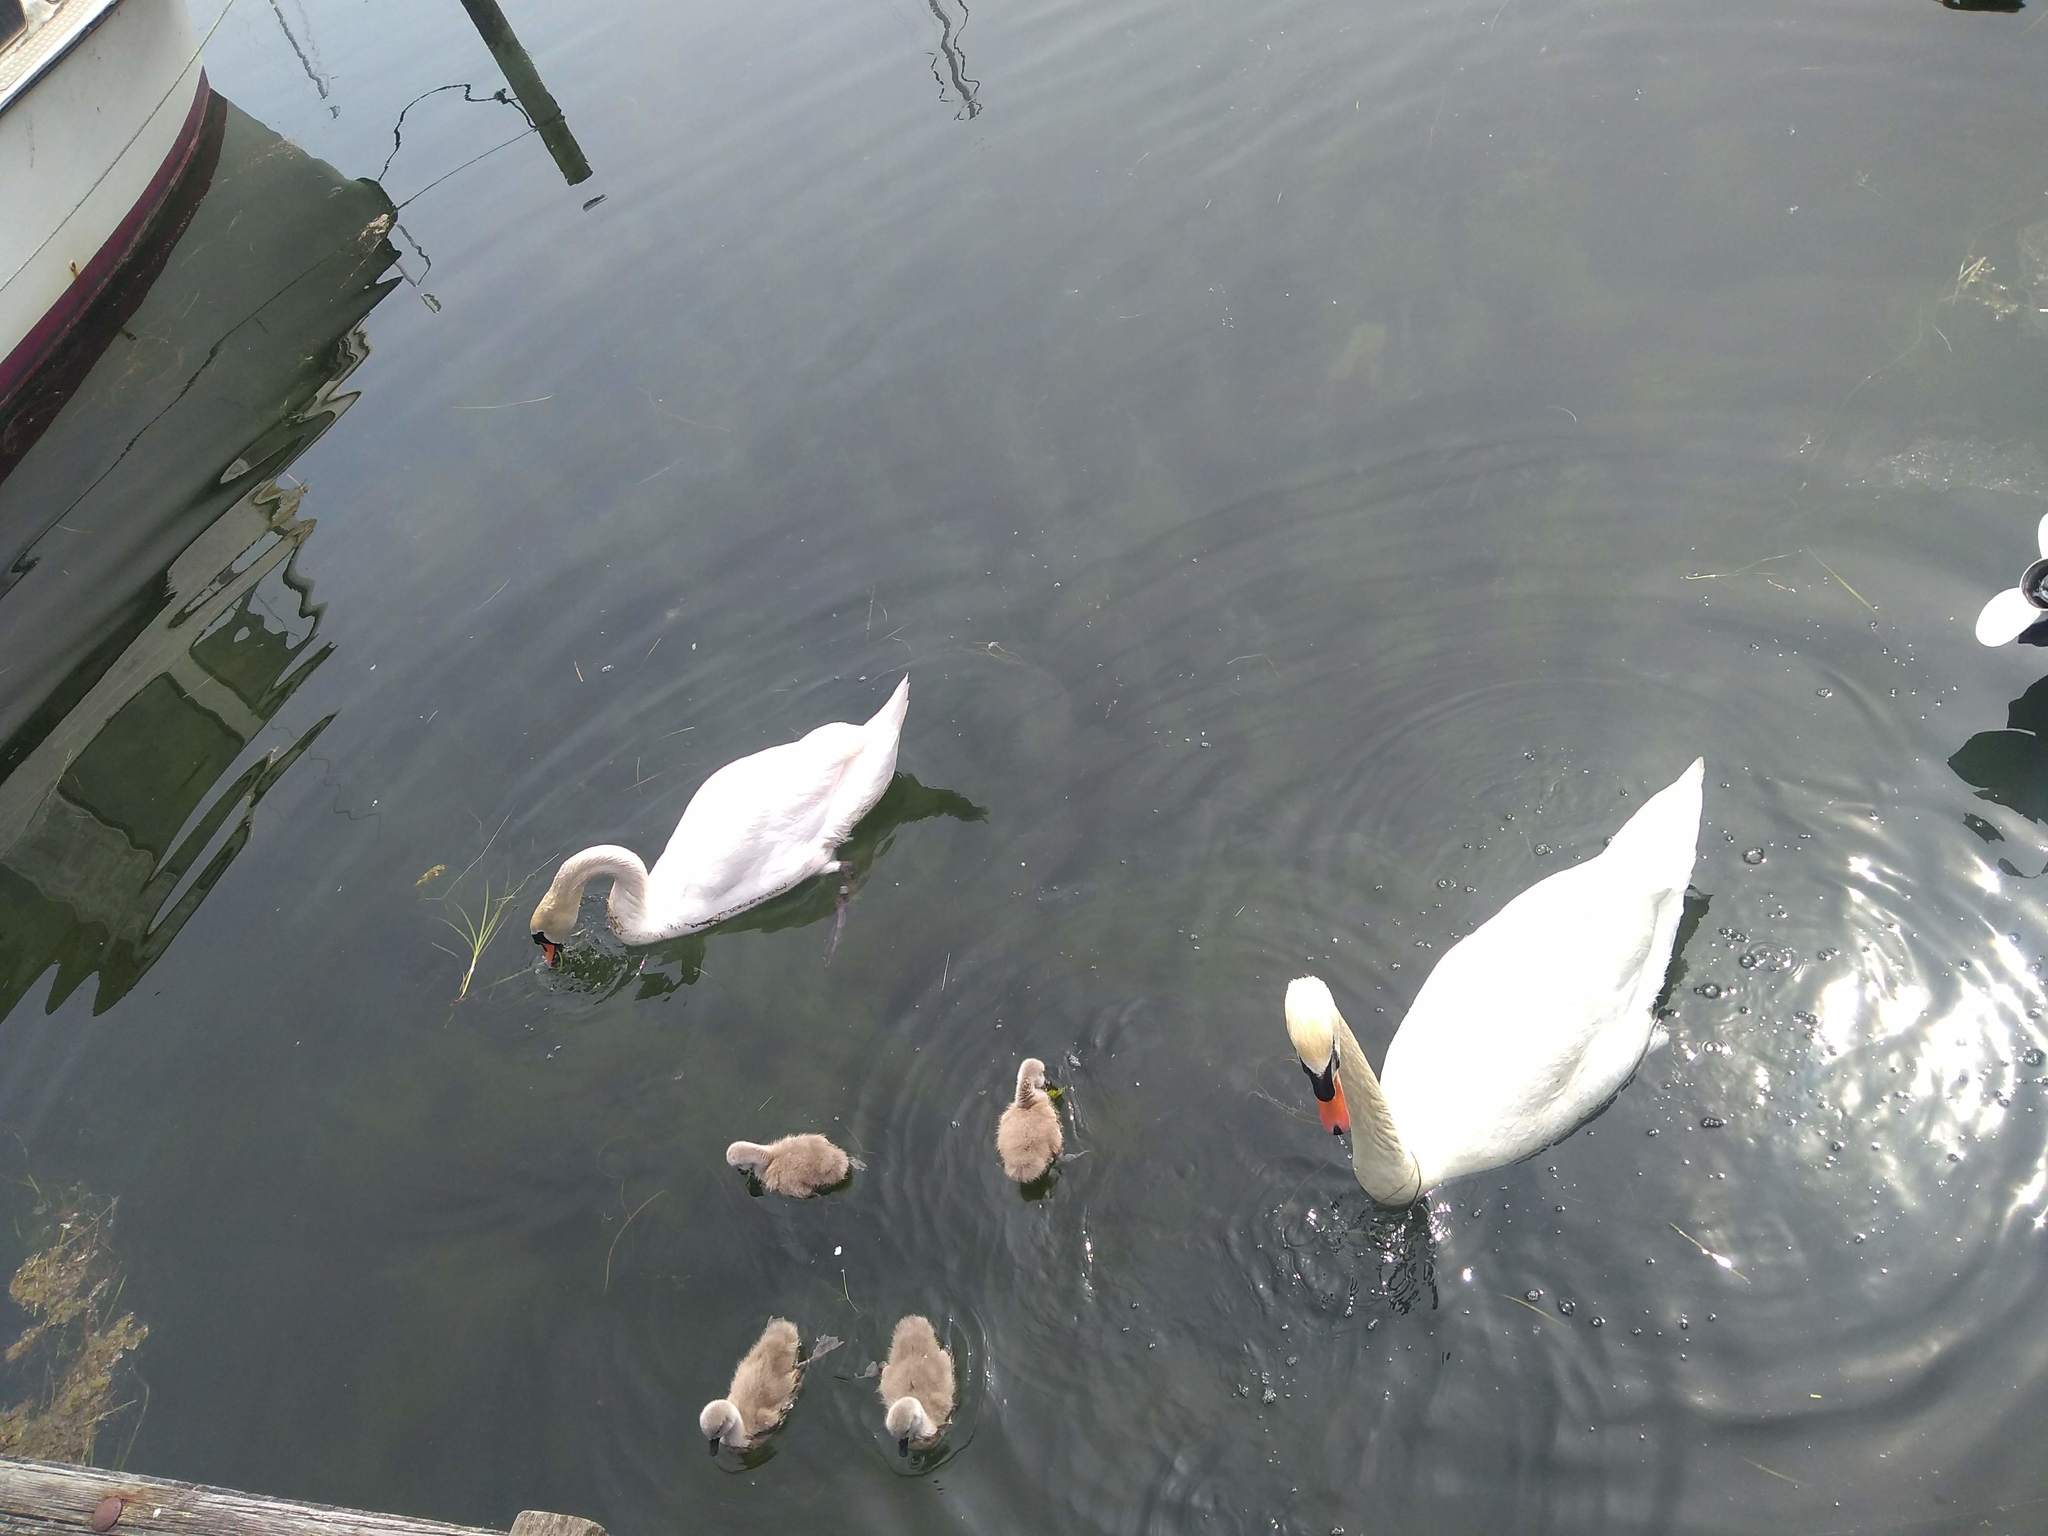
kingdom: Animalia
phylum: Chordata
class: Aves
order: Anseriformes
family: Anatidae
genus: Cygnus
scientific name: Cygnus olor
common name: Mute swan
